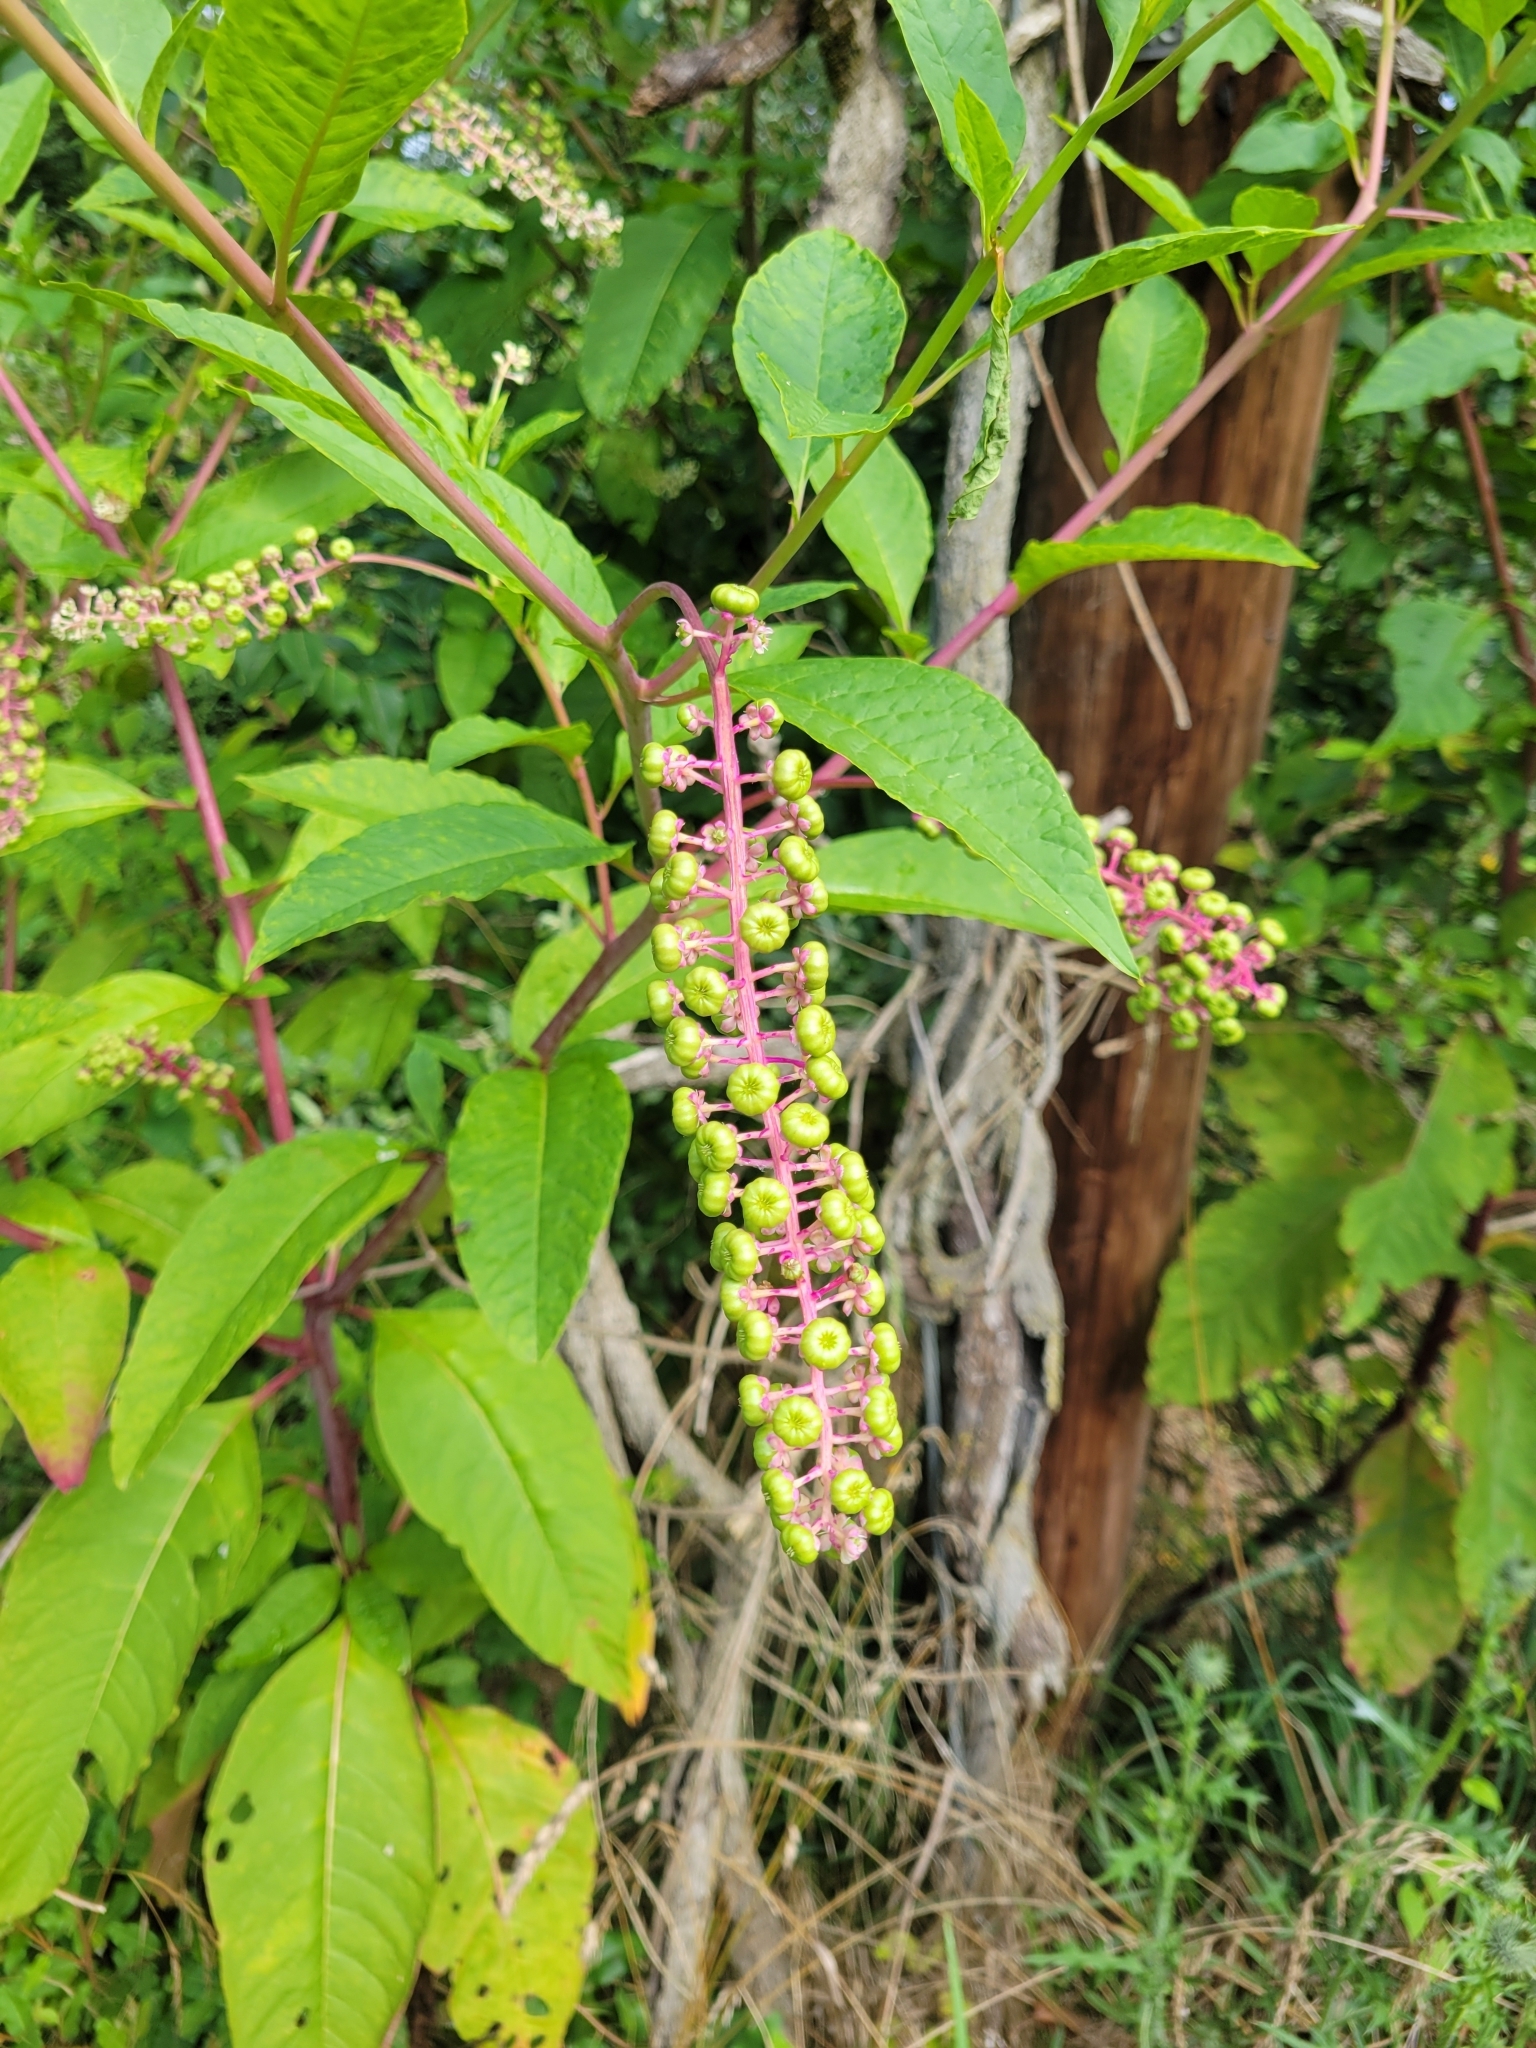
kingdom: Plantae
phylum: Tracheophyta
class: Magnoliopsida
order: Caryophyllales
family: Phytolaccaceae
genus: Phytolacca
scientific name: Phytolacca americana
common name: American pokeweed
